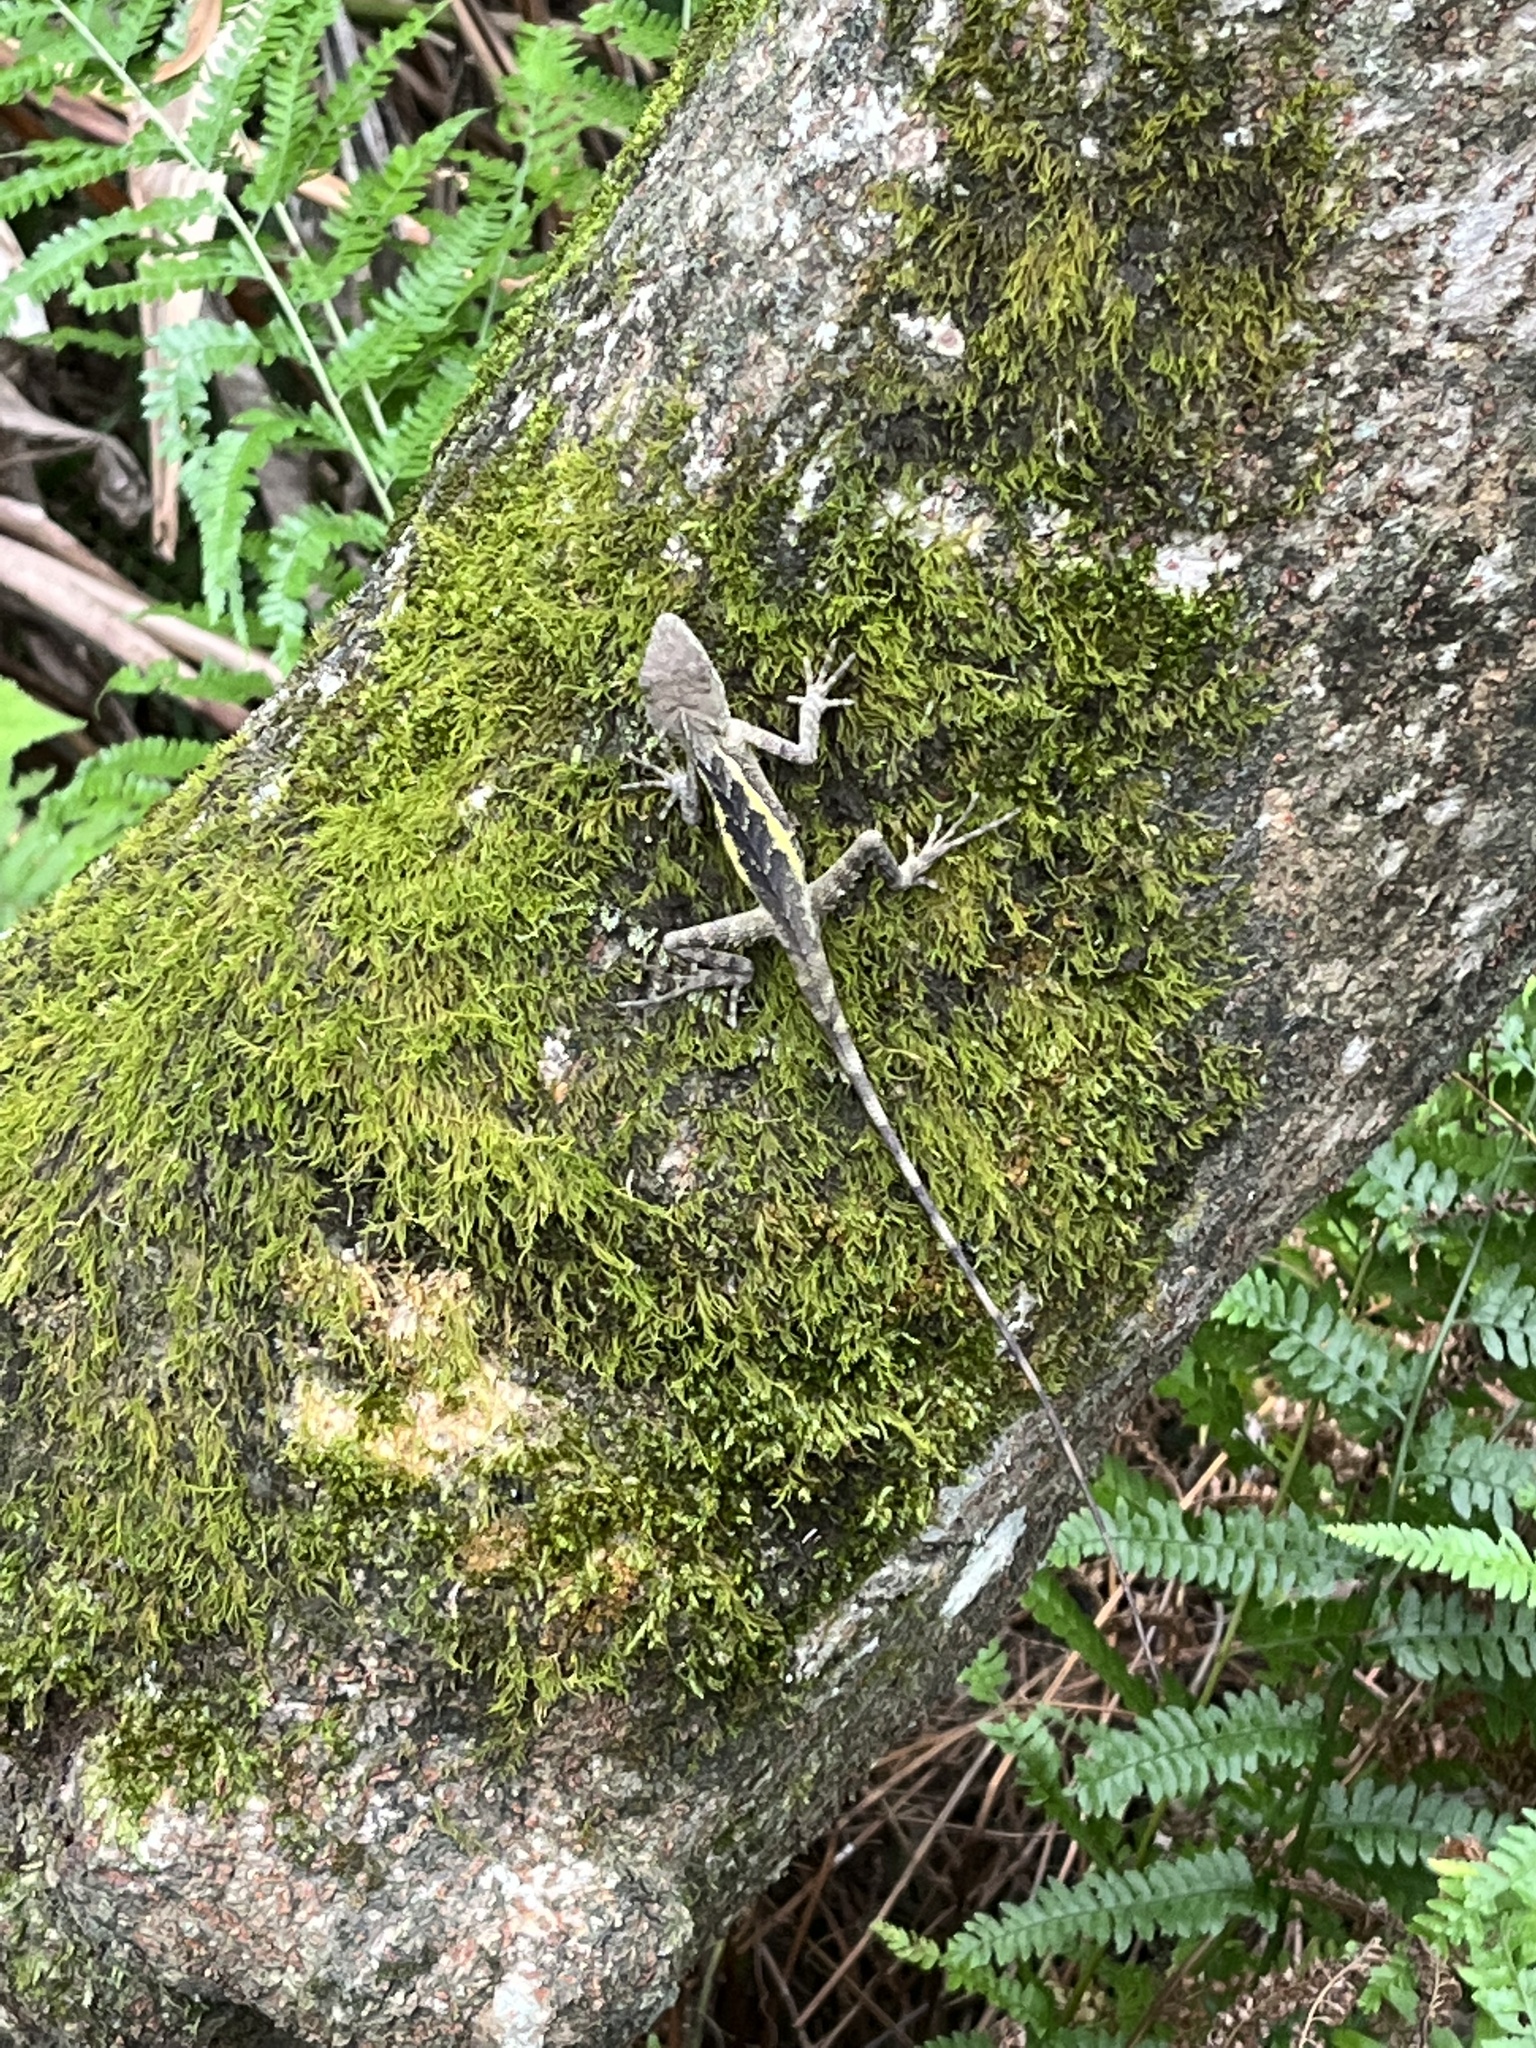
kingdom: Animalia
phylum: Chordata
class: Squamata
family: Agamidae
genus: Diploderma
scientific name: Diploderma swinhonis
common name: Taiwan japalure
